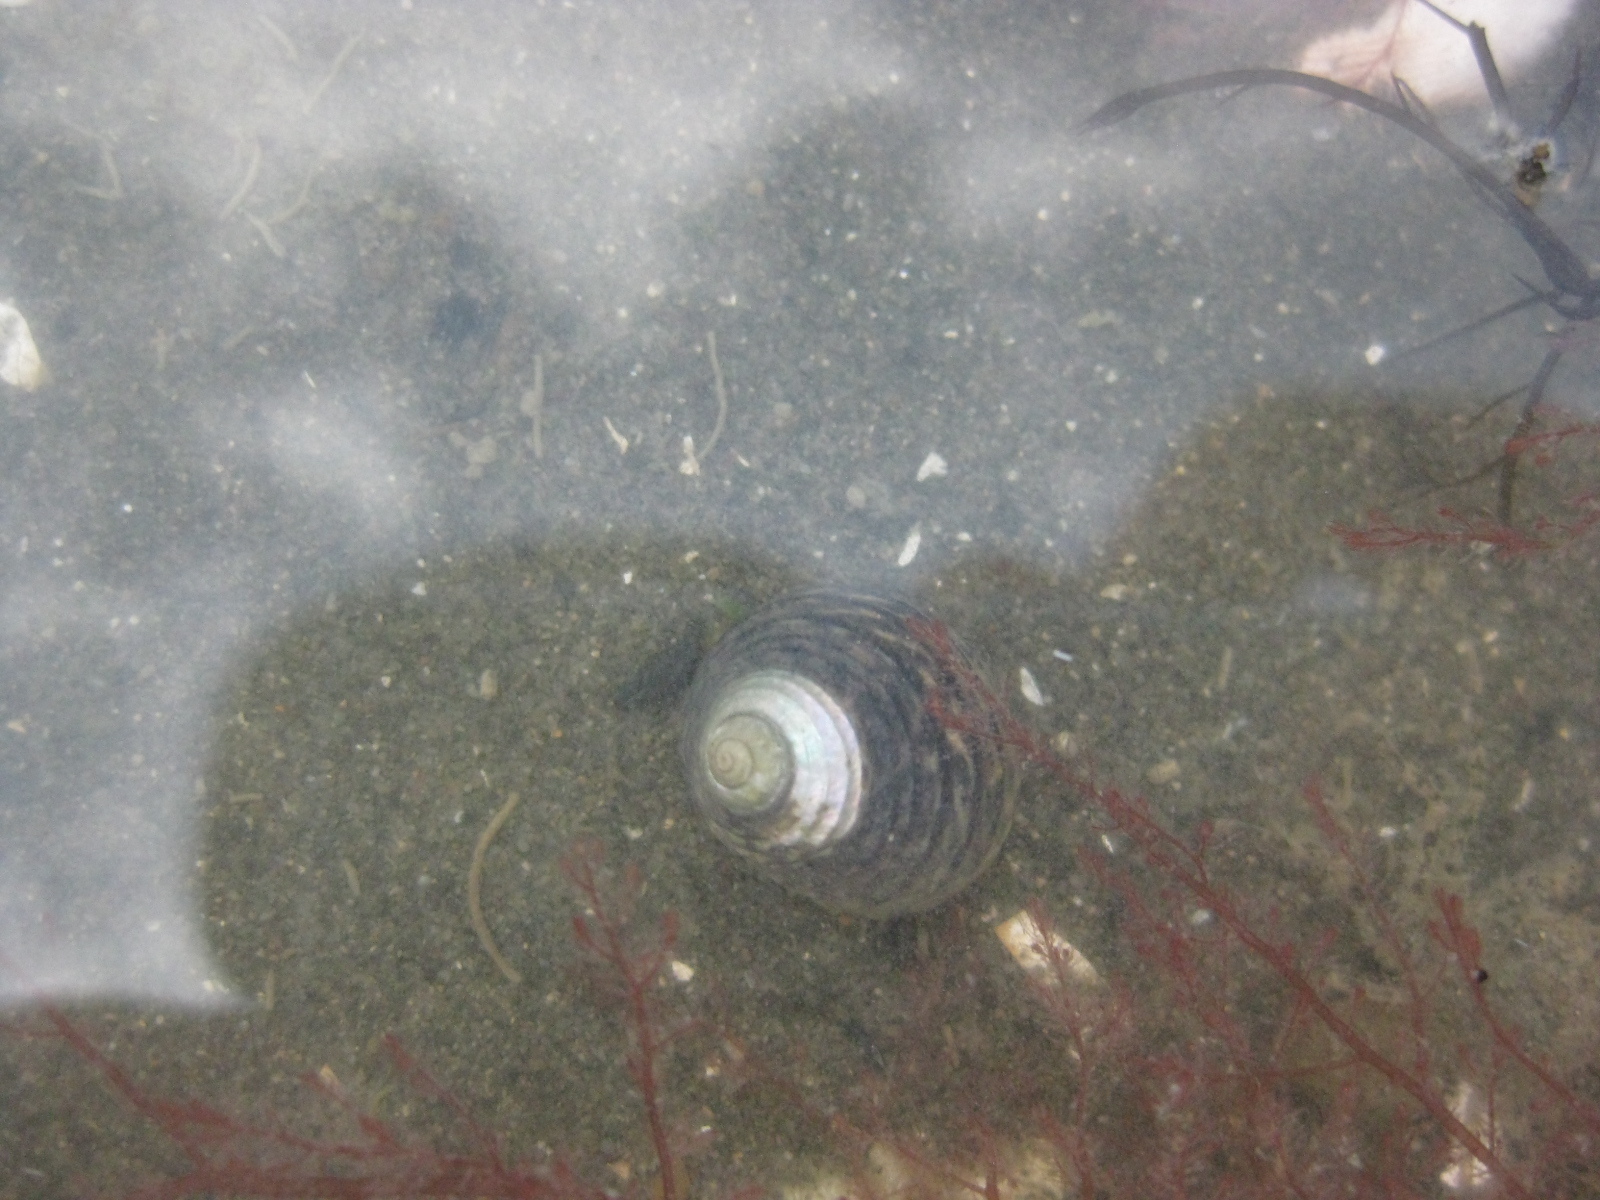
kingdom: Animalia
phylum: Mollusca
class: Gastropoda
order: Trochida
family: Trochidae
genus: Diloma
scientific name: Diloma subrostratum
